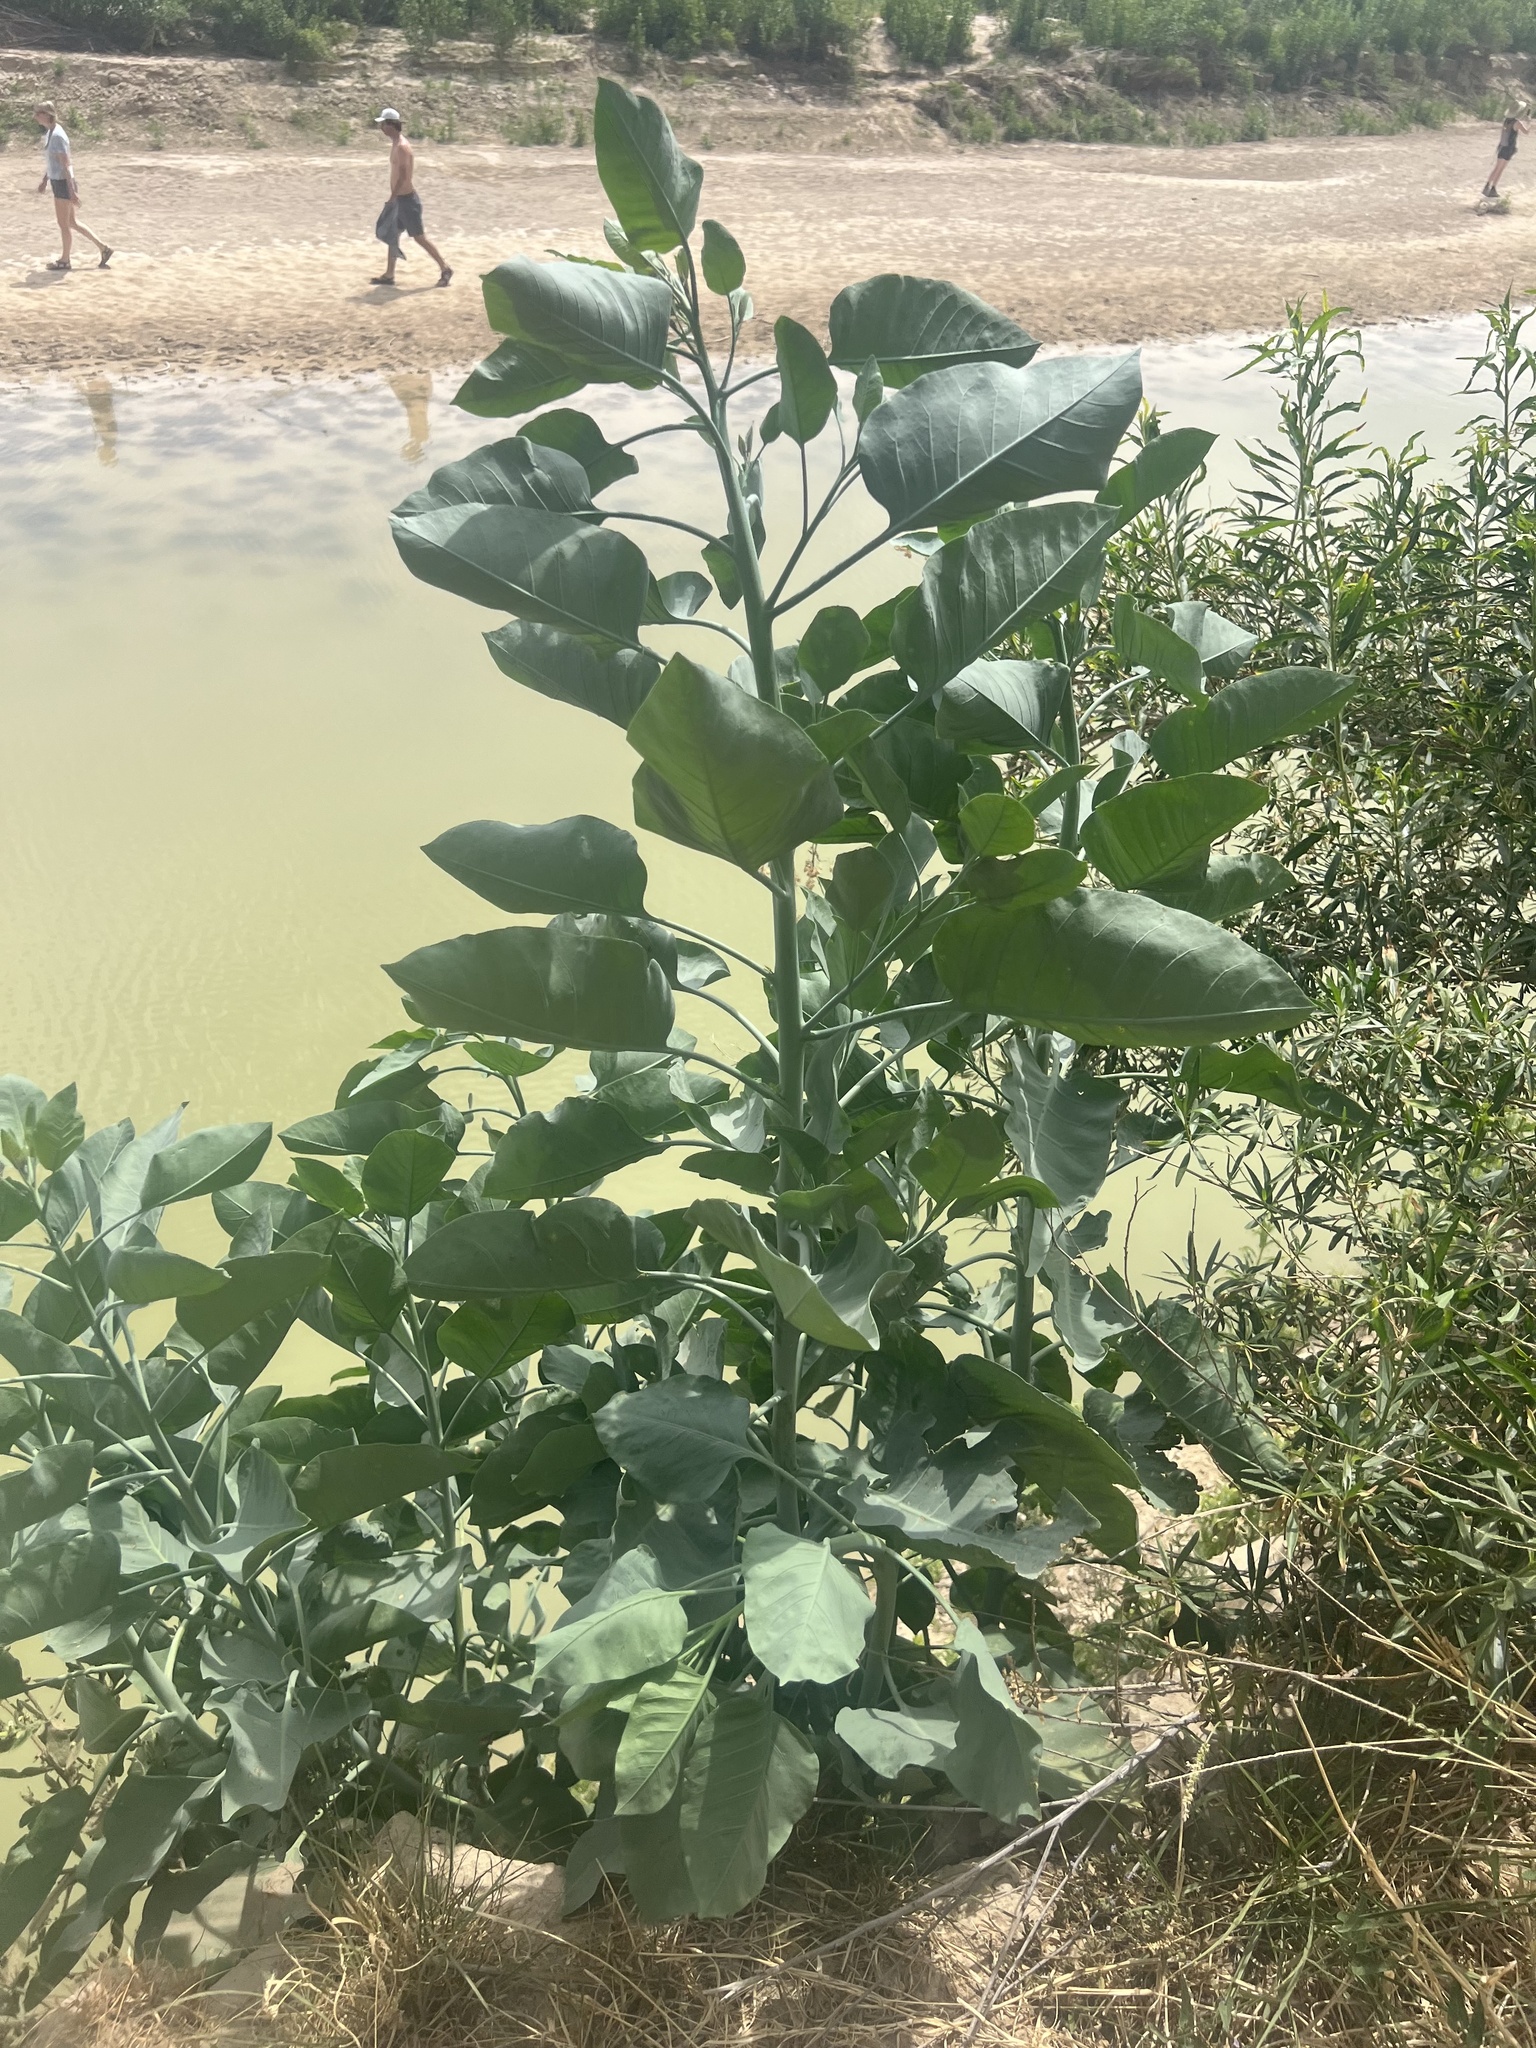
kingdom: Plantae
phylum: Tracheophyta
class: Magnoliopsida
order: Solanales
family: Solanaceae
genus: Nicotiana
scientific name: Nicotiana glauca
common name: Tree tobacco
